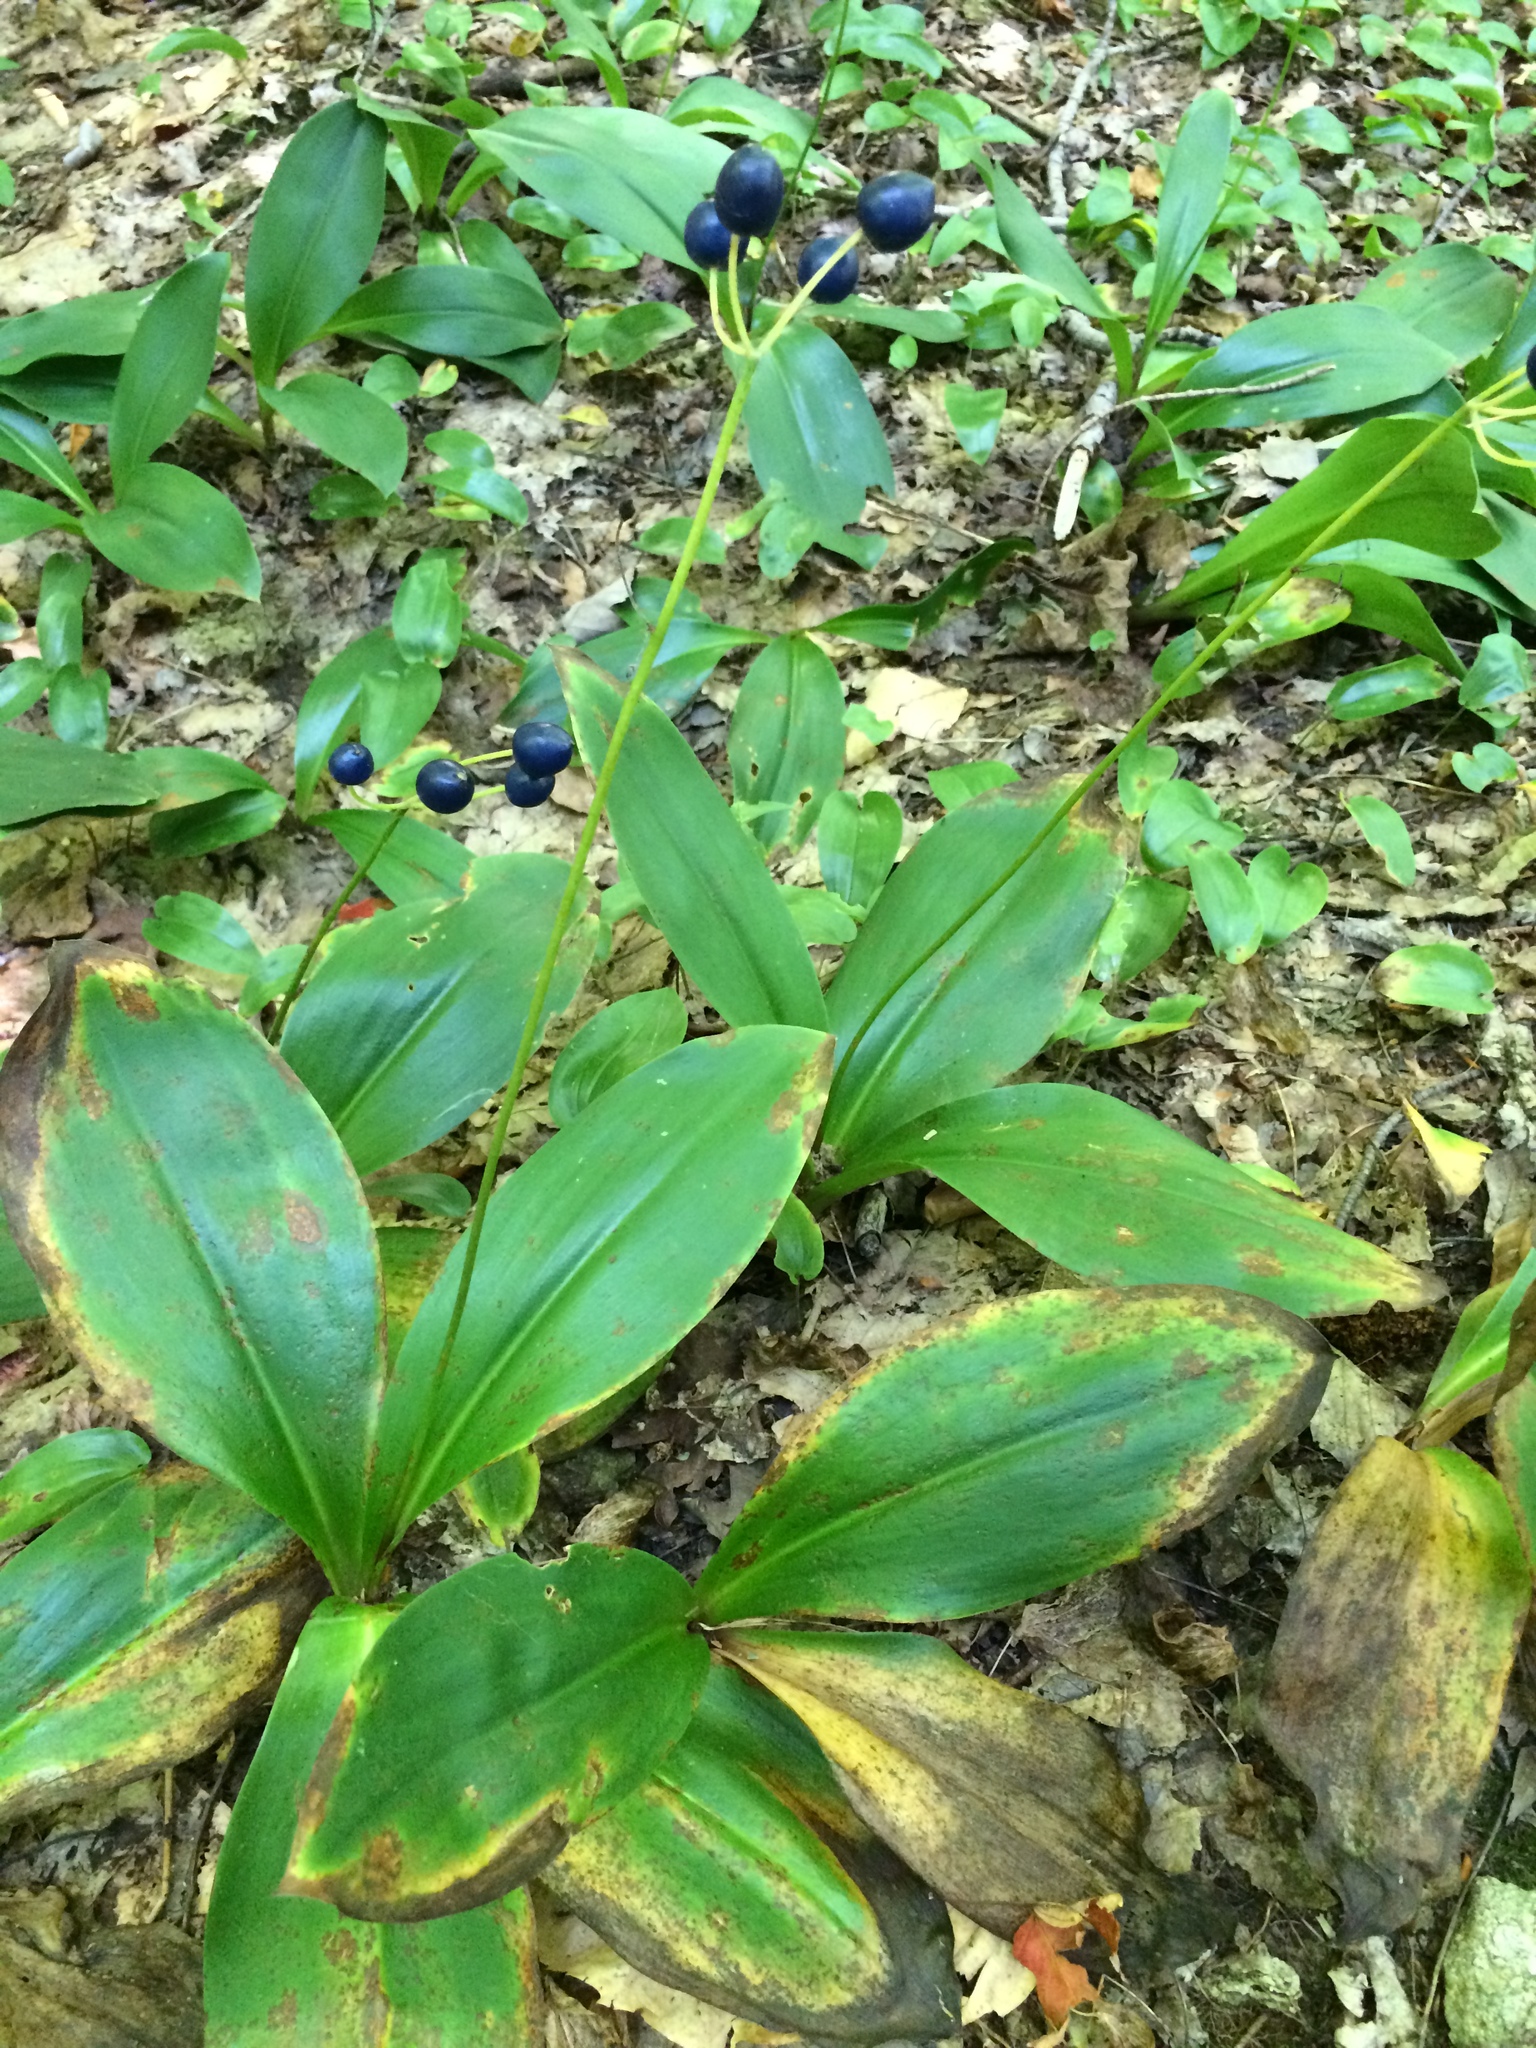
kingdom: Plantae
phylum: Tracheophyta
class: Liliopsida
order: Liliales
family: Liliaceae
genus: Clintonia
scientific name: Clintonia borealis
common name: Yellow clintonia
